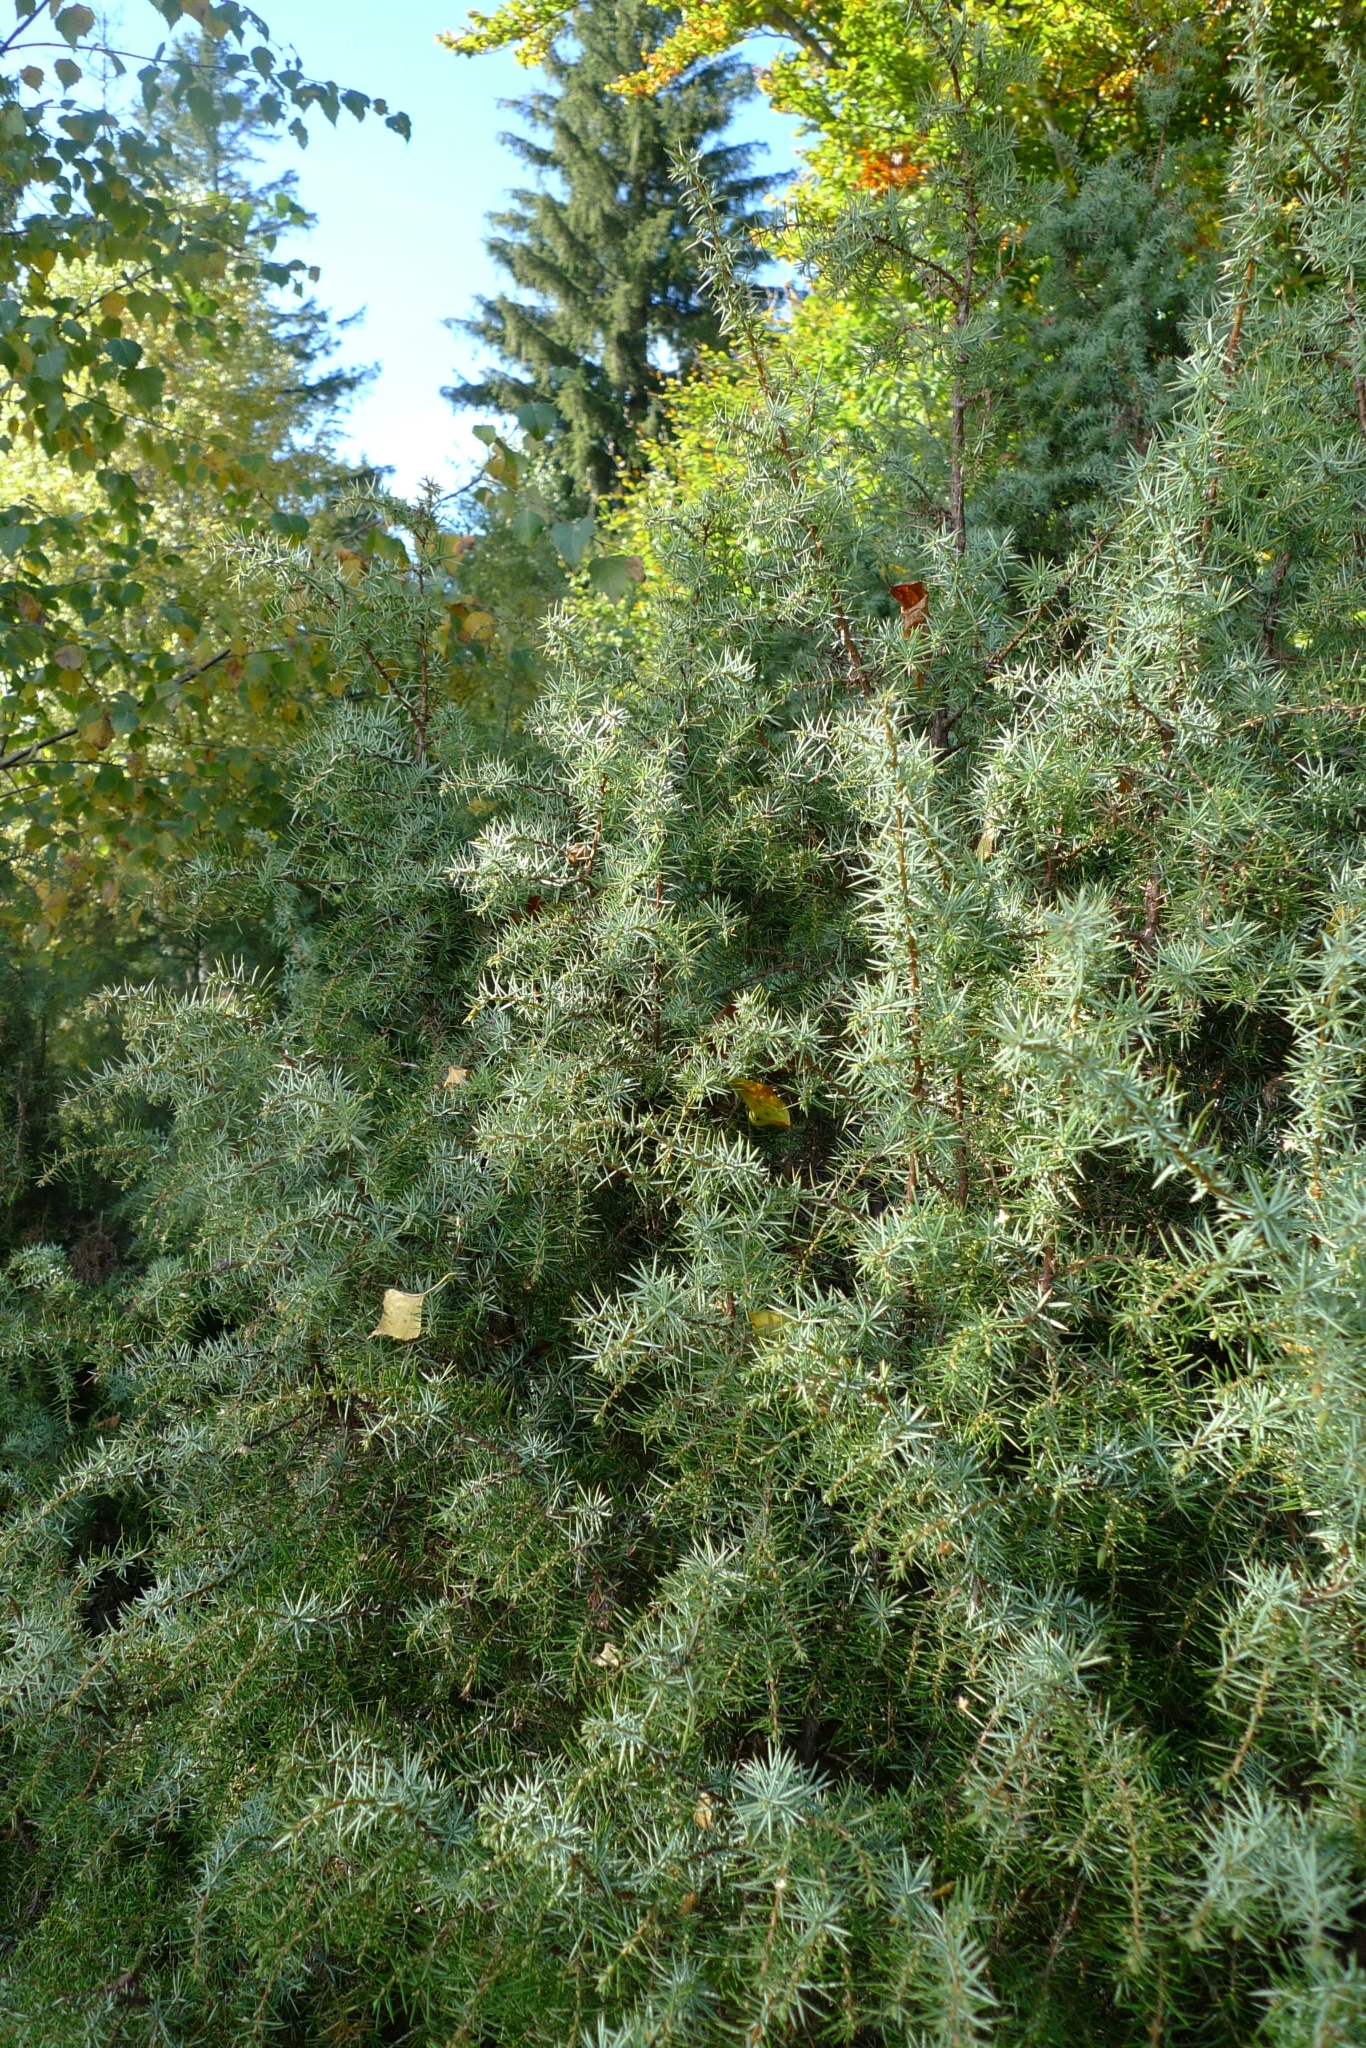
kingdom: Plantae
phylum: Tracheophyta
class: Pinopsida
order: Pinales
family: Cupressaceae
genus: Juniperus
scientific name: Juniperus communis
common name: Common juniper
